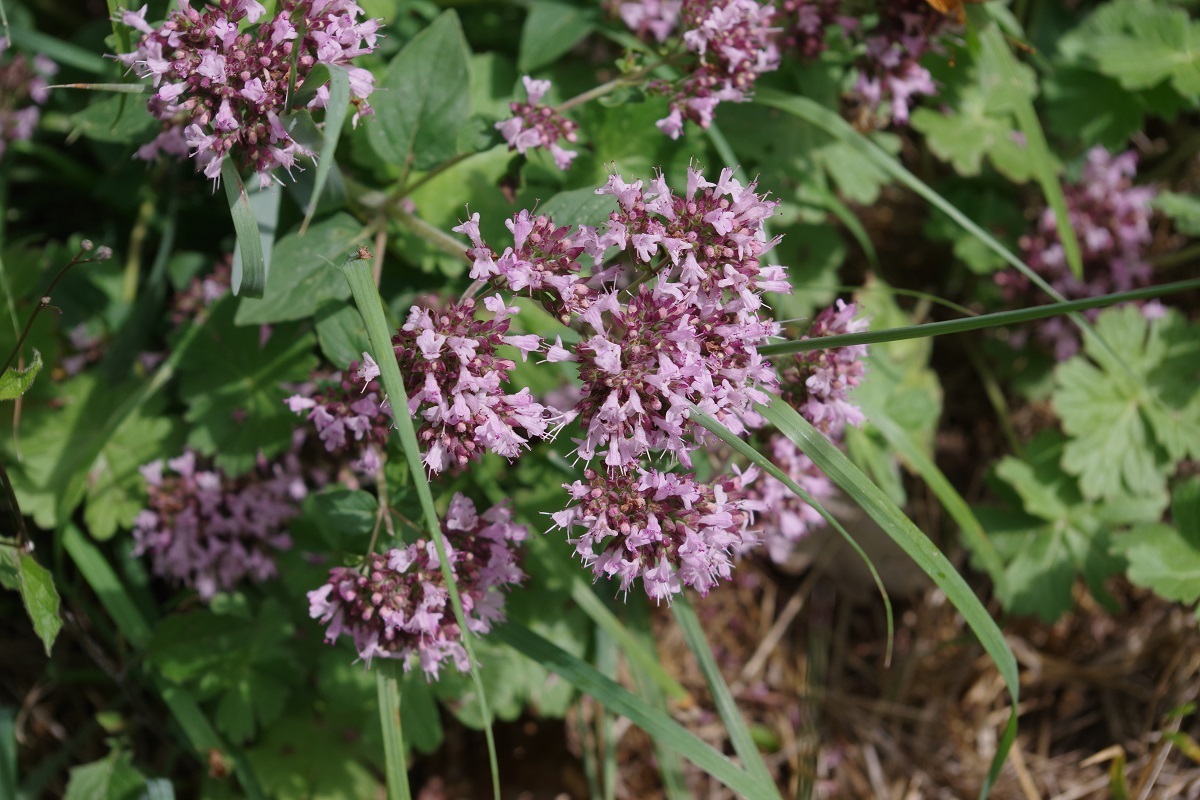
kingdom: Plantae
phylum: Tracheophyta
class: Magnoliopsida
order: Lamiales
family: Lamiaceae
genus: Origanum
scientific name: Origanum vulgare
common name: Wild marjoram
